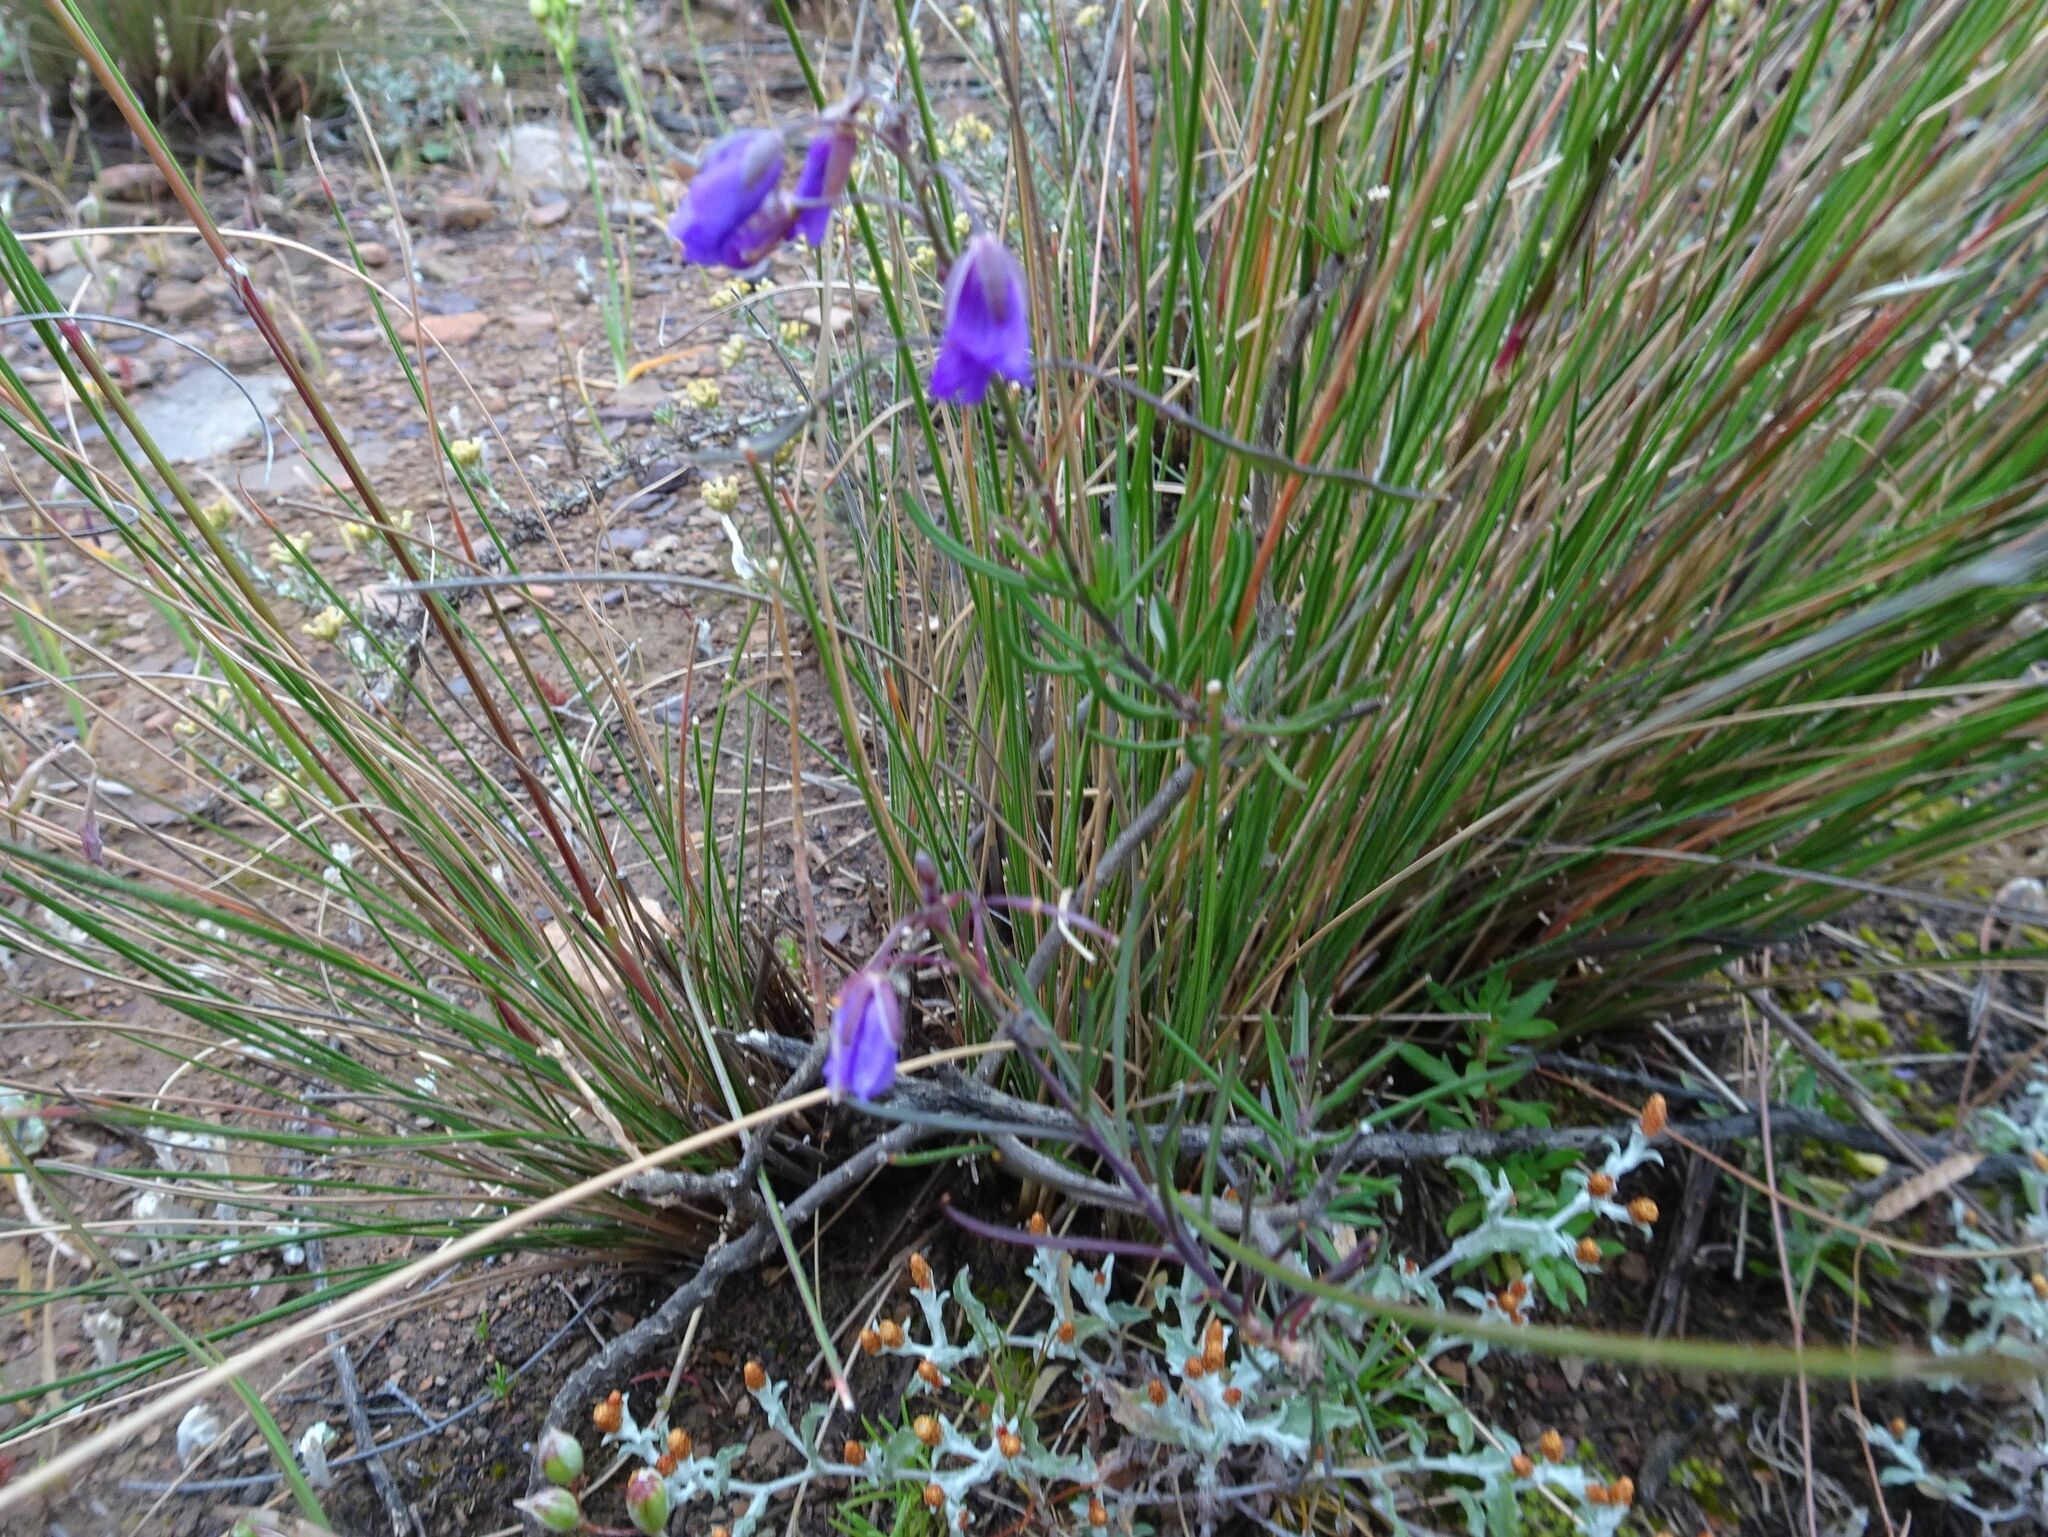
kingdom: Plantae
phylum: Tracheophyta
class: Magnoliopsida
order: Brassicales
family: Brassicaceae
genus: Heliophila
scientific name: Heliophila suavissima
